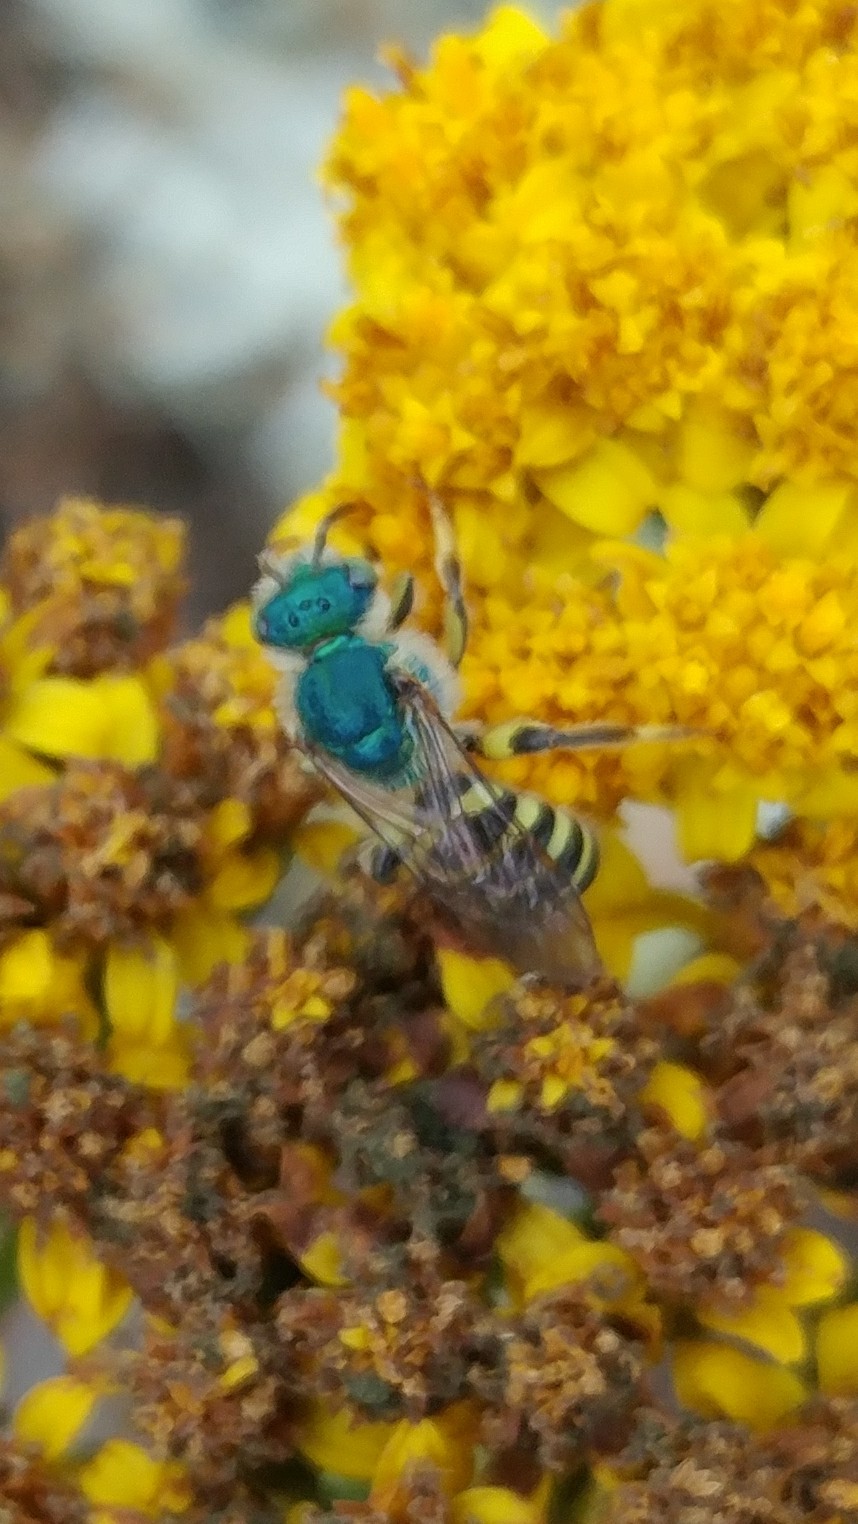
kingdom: Animalia
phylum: Arthropoda
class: Insecta
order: Hymenoptera
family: Halictidae
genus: Agapostemon
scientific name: Agapostemon texanus
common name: Texas striped sweat bee
